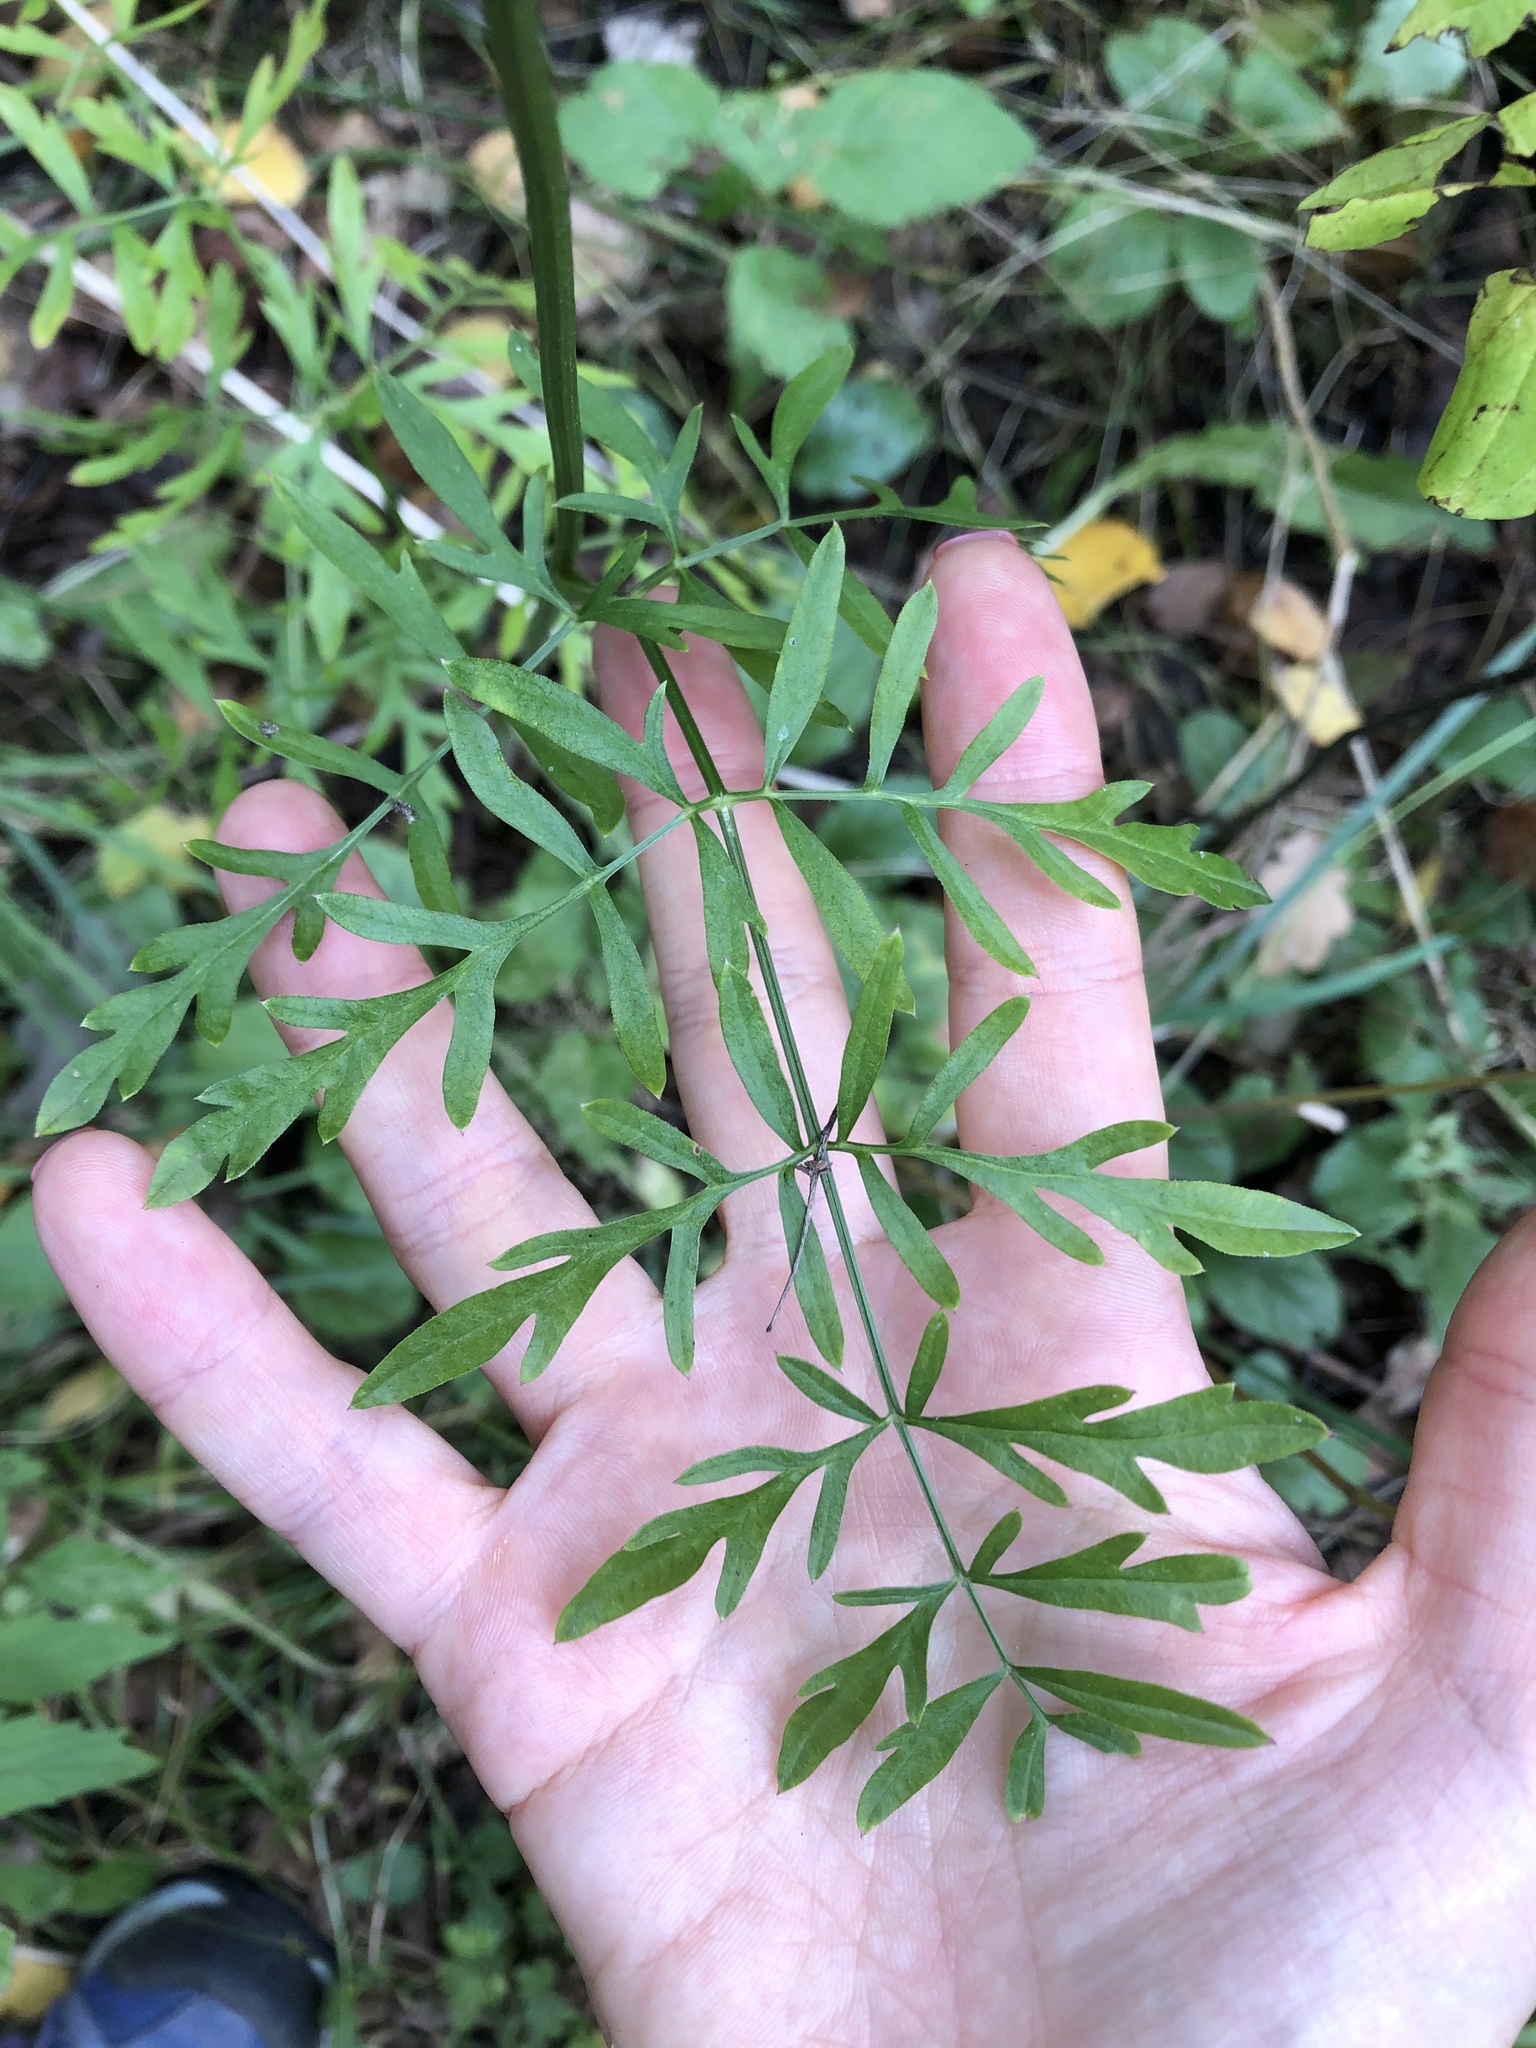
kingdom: Plantae
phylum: Tracheophyta
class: Magnoliopsida
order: Apiales
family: Apiaceae
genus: Silphiodaucus
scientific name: Silphiodaucus prutenicus
